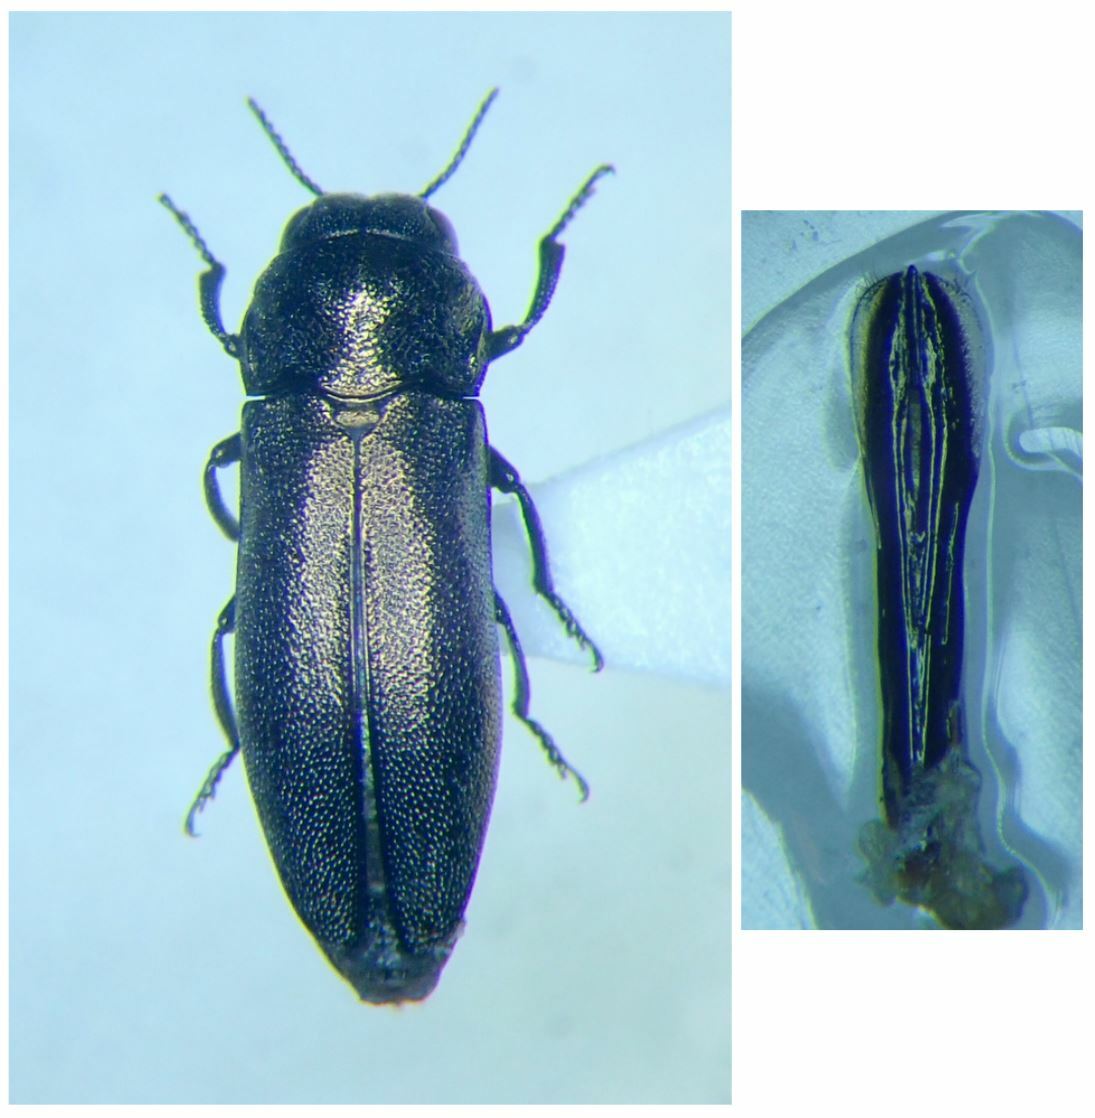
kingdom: Animalia
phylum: Arthropoda
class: Insecta
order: Coleoptera
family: Buprestidae
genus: Coraebus
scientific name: Coraebus elatus
